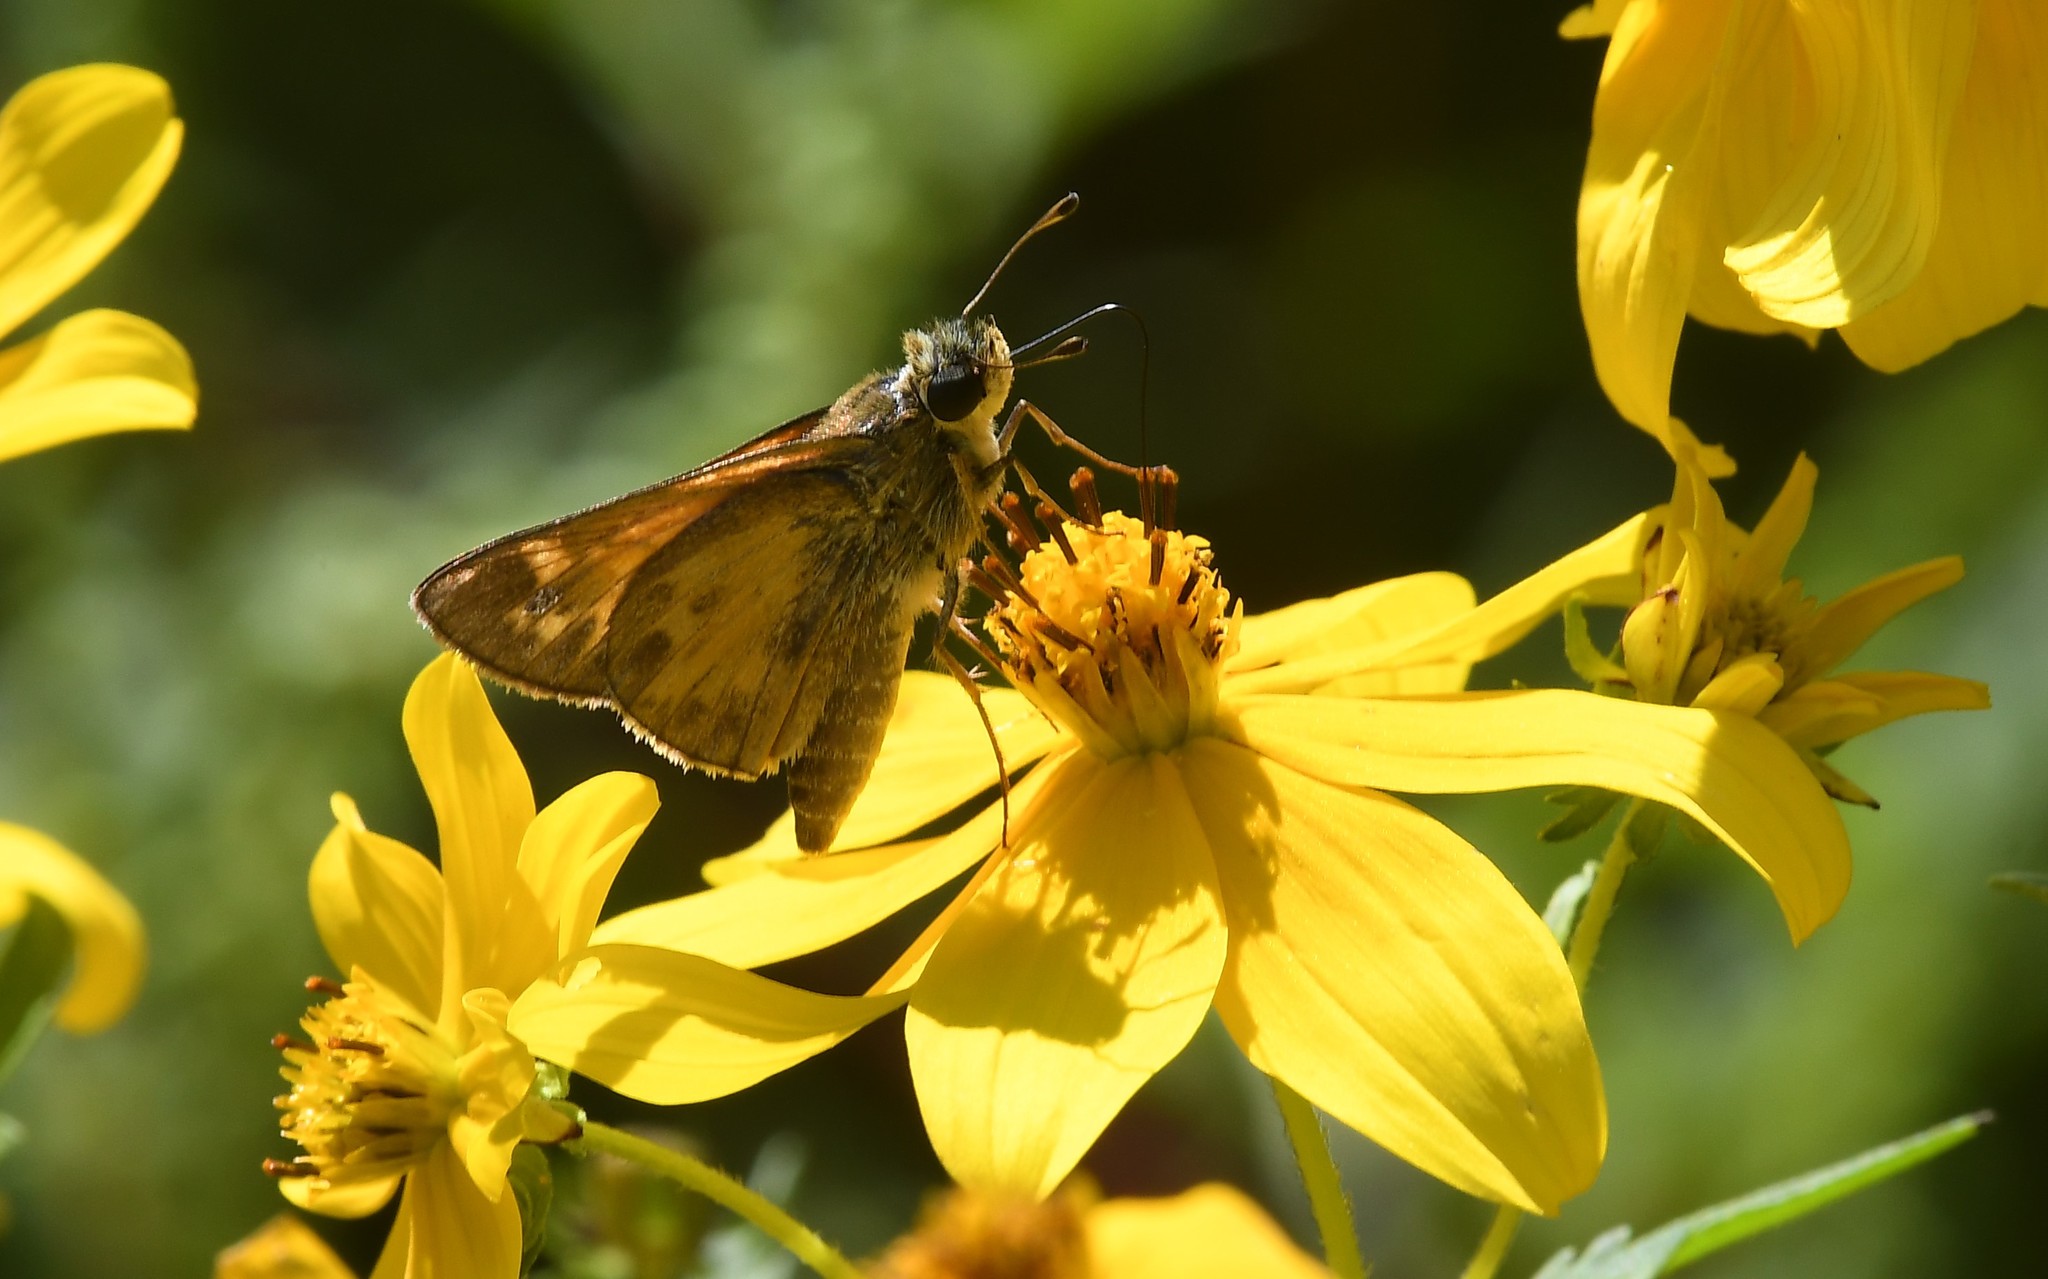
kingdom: Animalia
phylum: Arthropoda
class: Insecta
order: Lepidoptera
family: Hesperiidae
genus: Atalopedes
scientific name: Atalopedes
